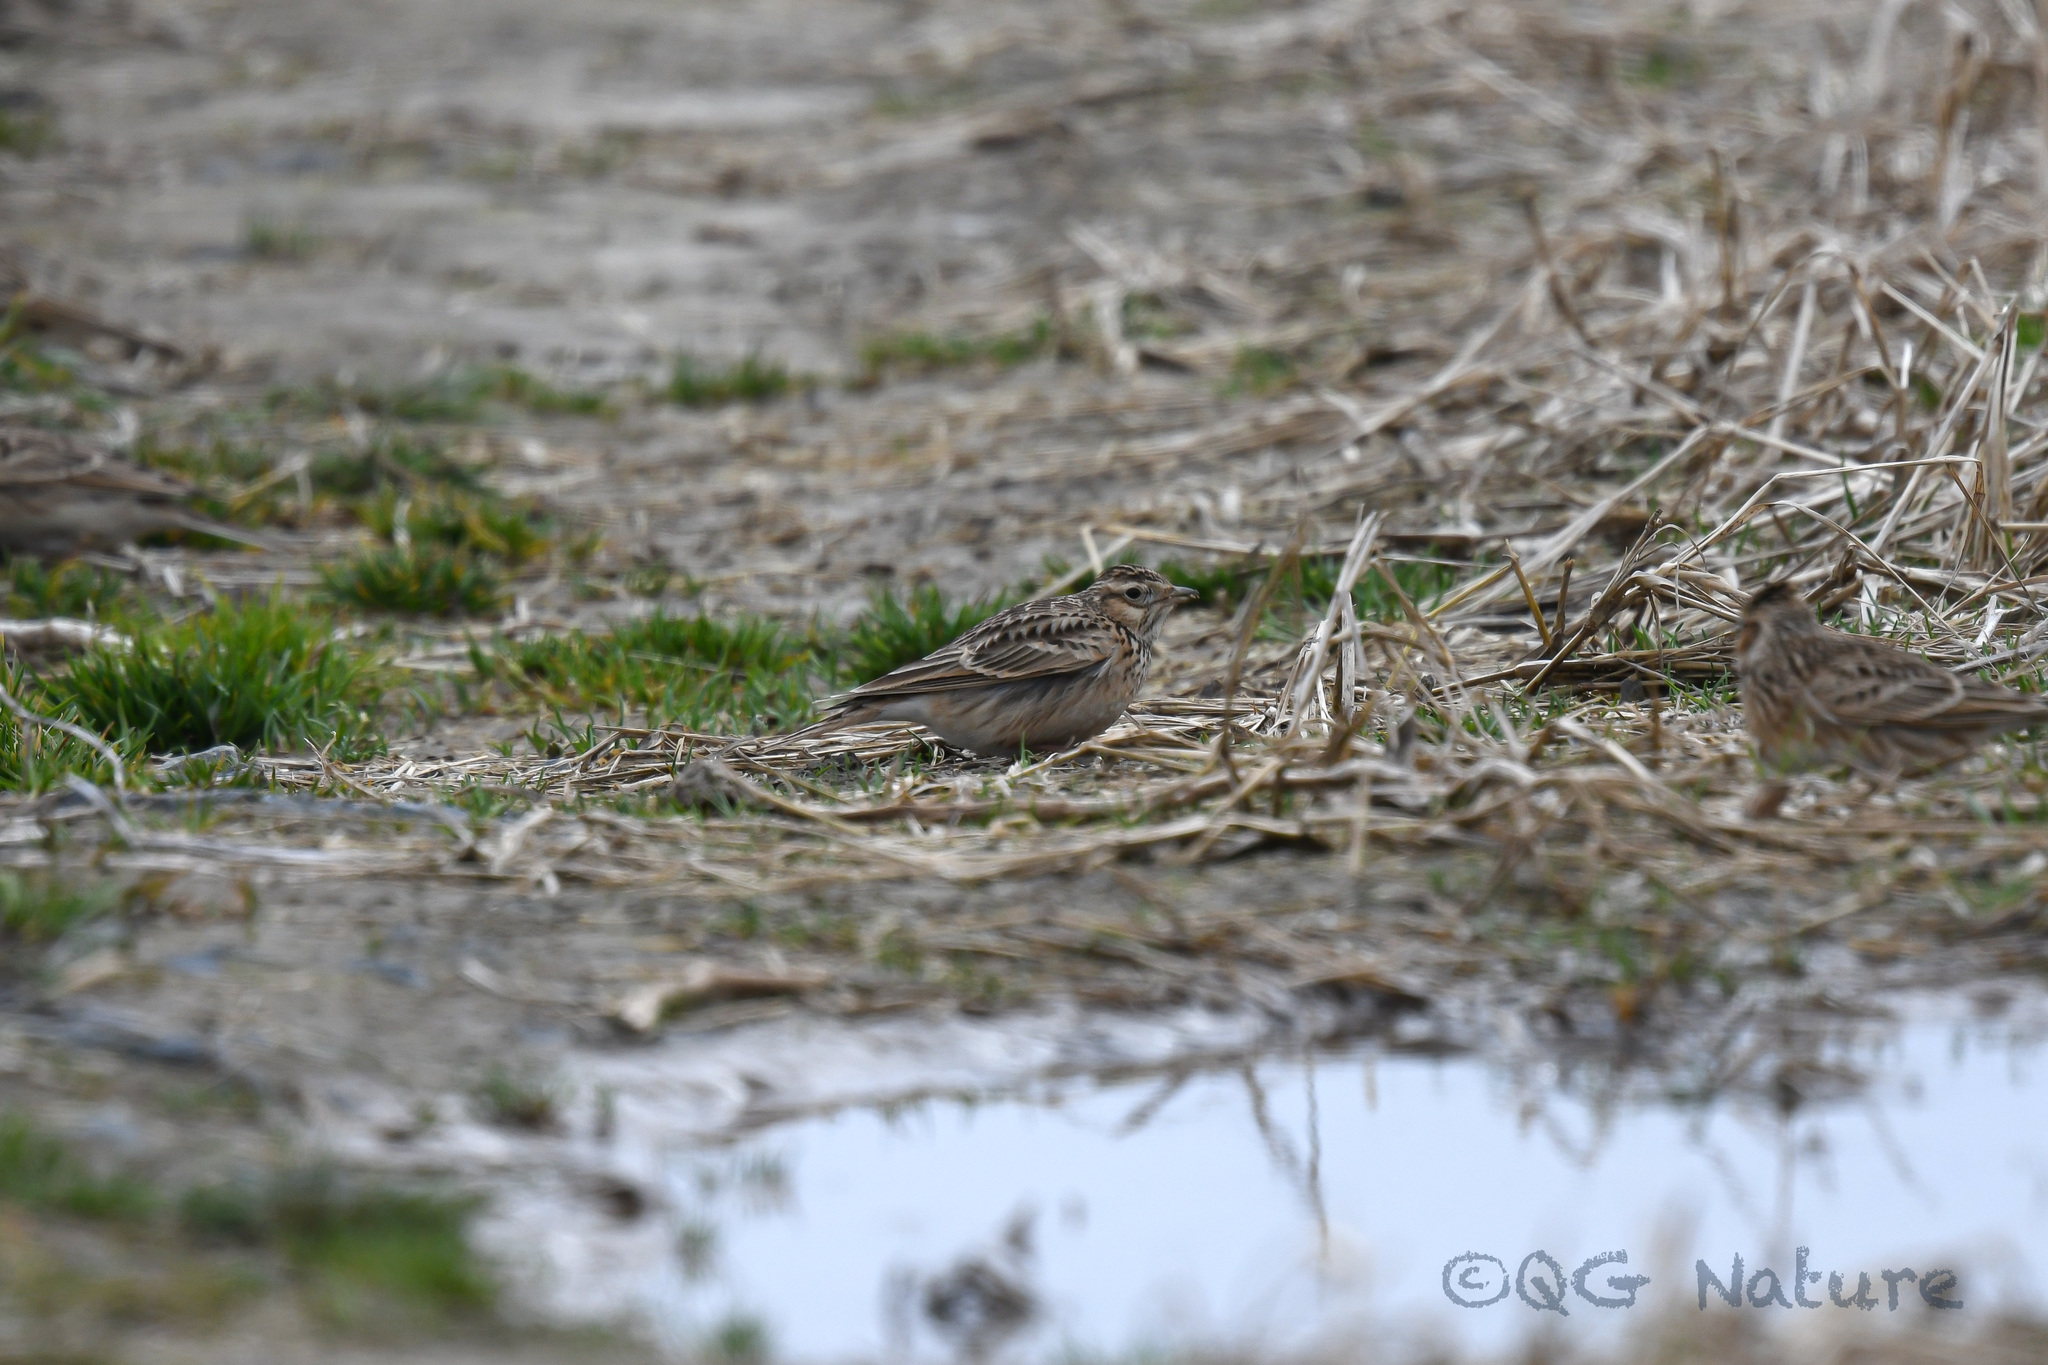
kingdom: Animalia
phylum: Chordata
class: Aves
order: Passeriformes
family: Alaudidae
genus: Alauda
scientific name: Alauda gulgula
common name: Oriental skylark
